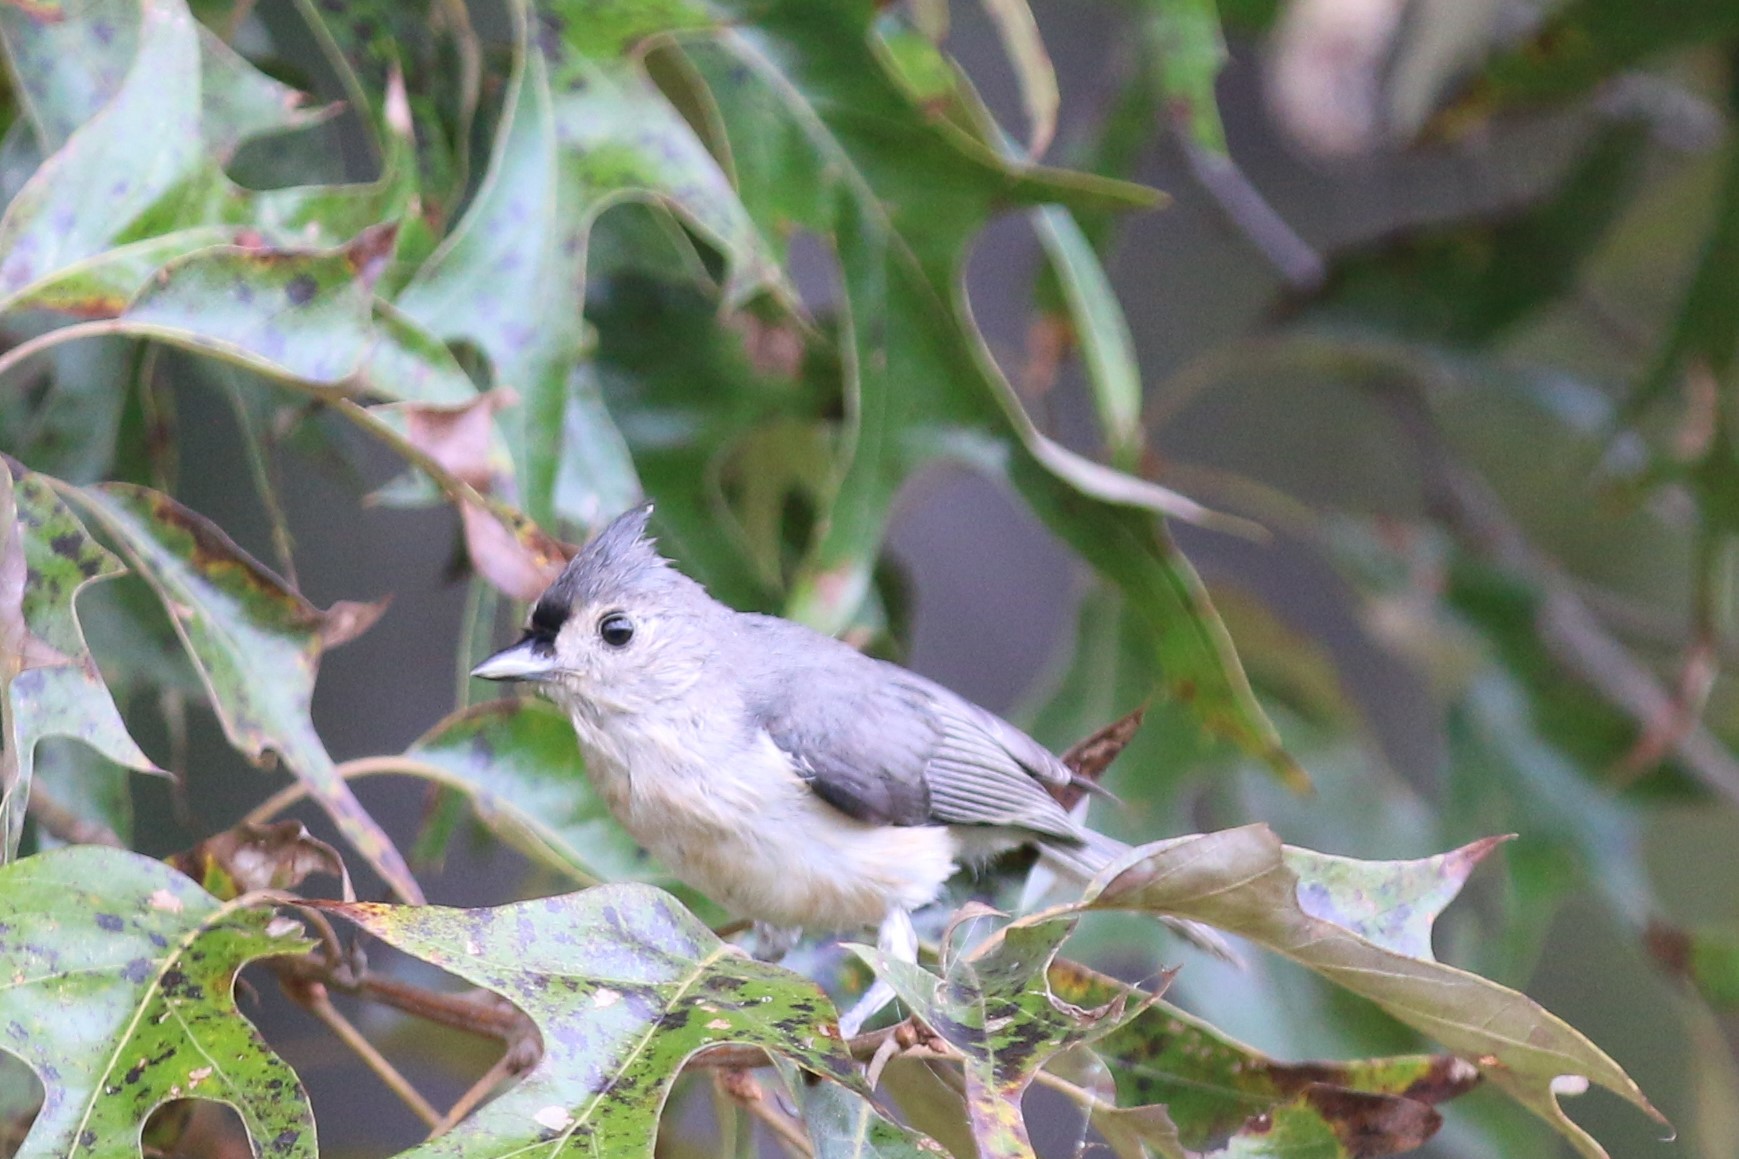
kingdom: Animalia
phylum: Chordata
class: Aves
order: Passeriformes
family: Paridae
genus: Baeolophus
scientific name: Baeolophus bicolor
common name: Tufted titmouse
